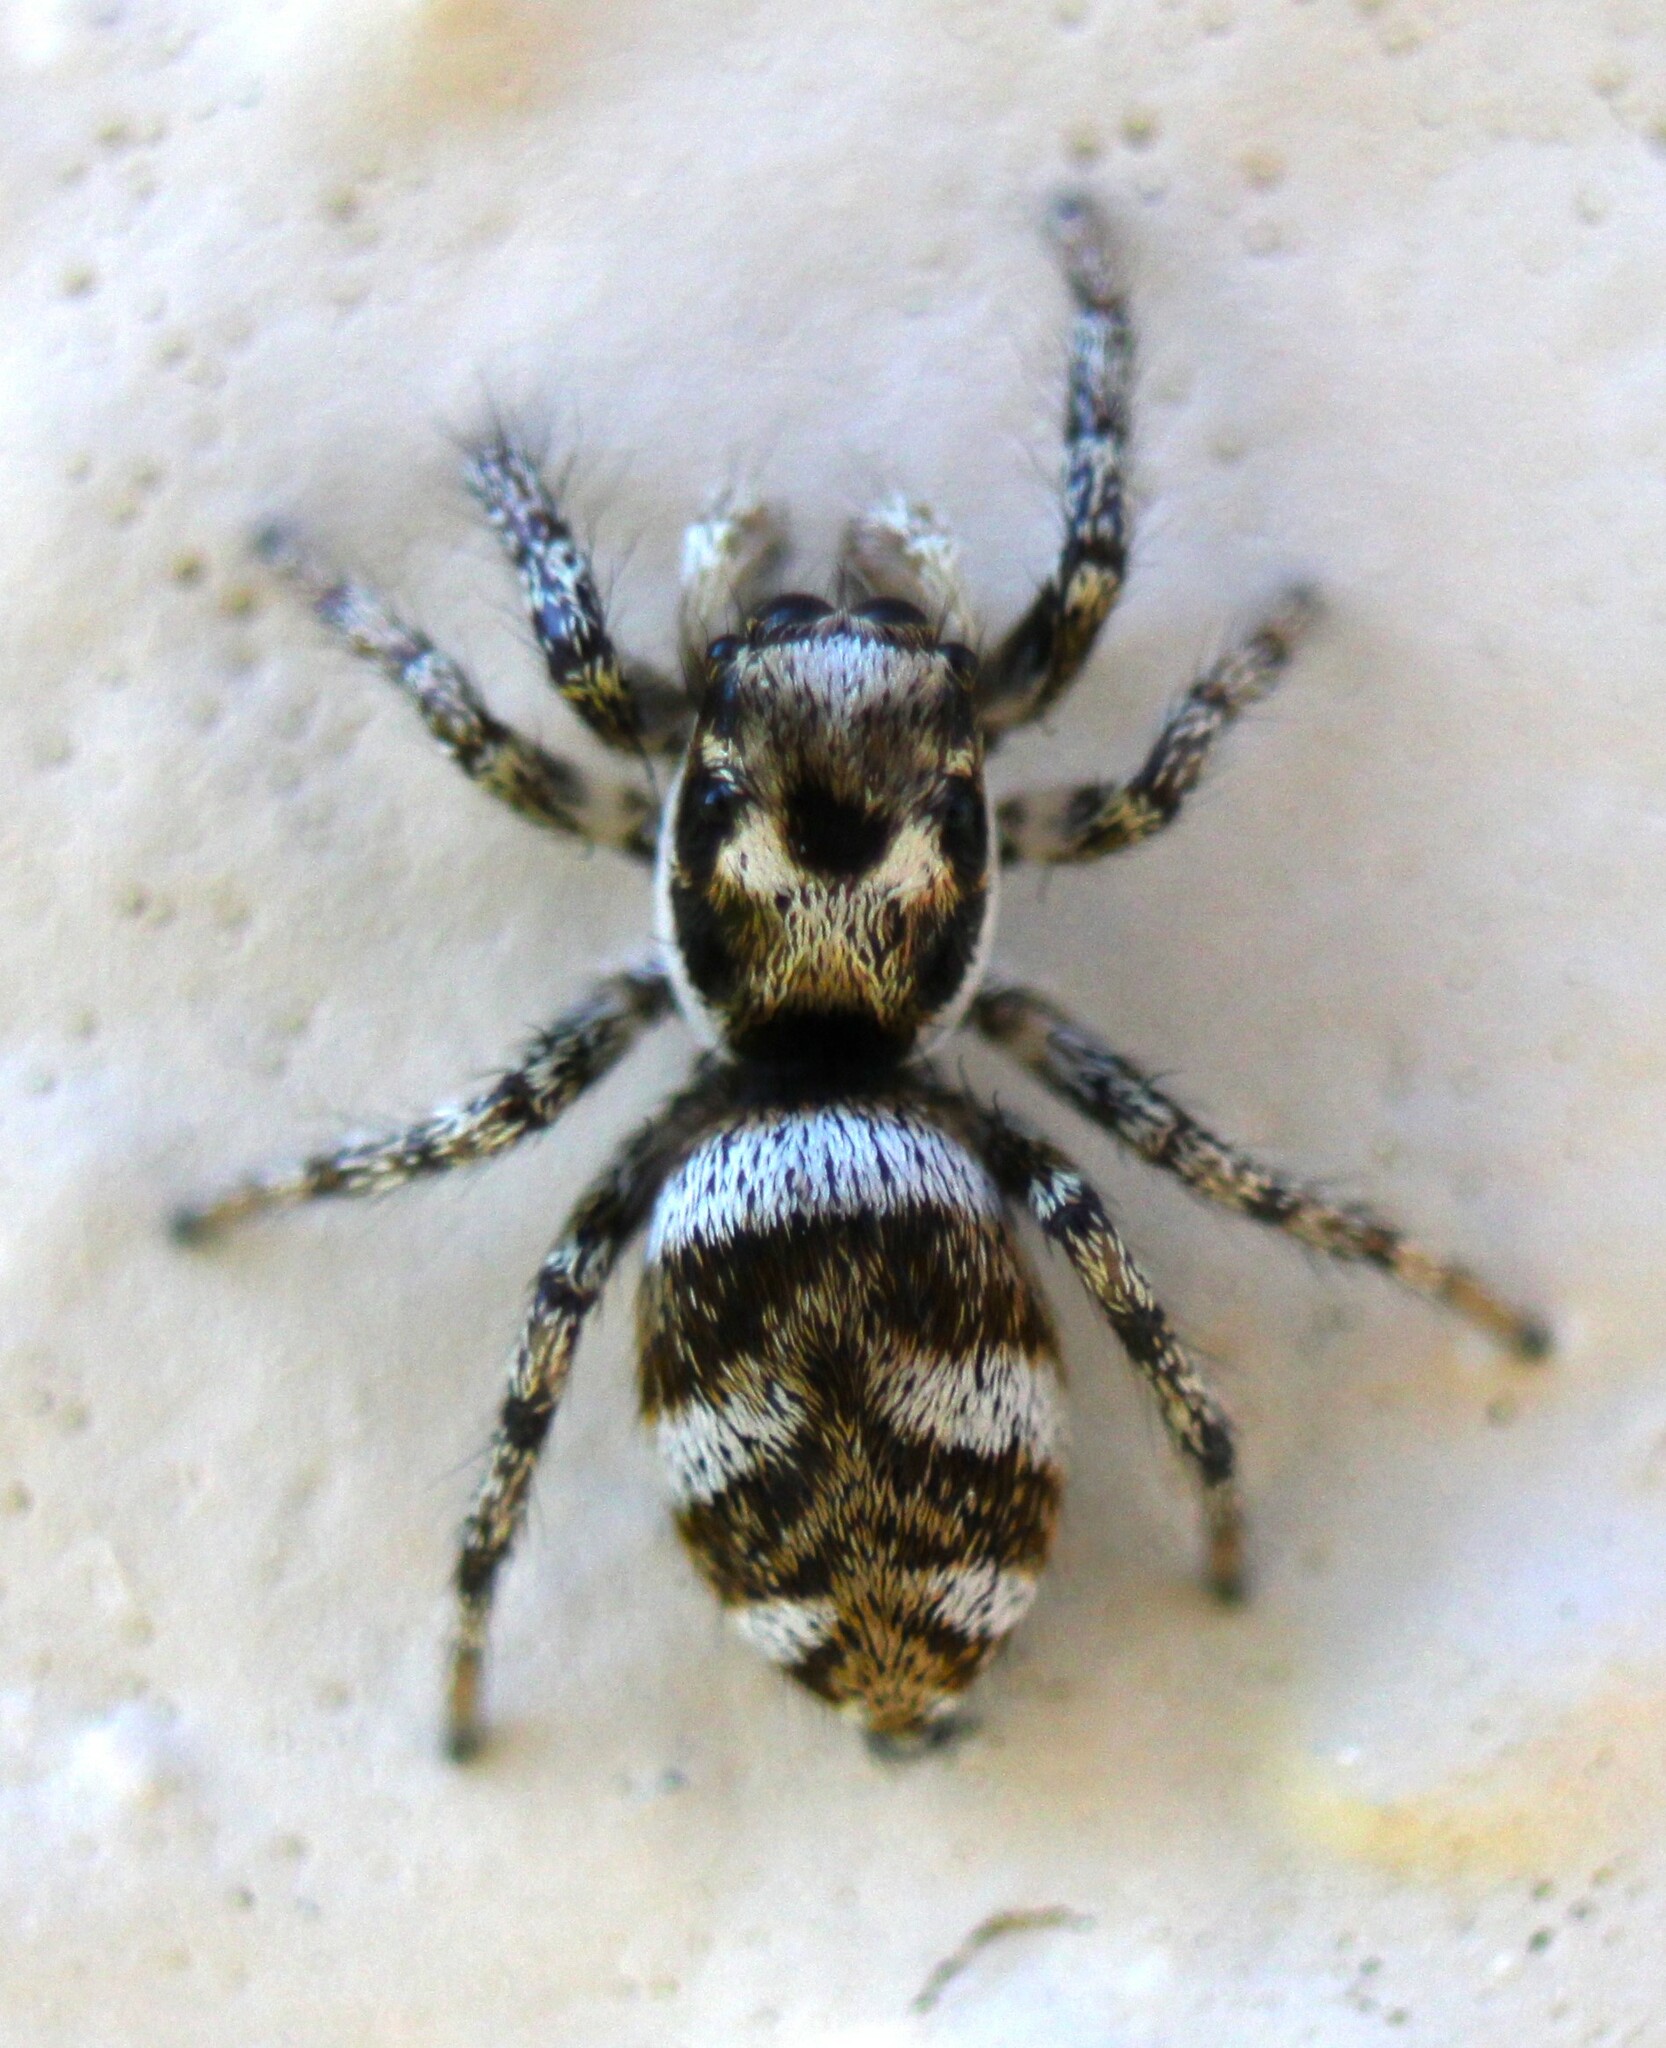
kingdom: Animalia
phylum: Arthropoda
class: Arachnida
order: Araneae
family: Salticidae
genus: Salticus
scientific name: Salticus scenicus
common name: Zebra jumper
